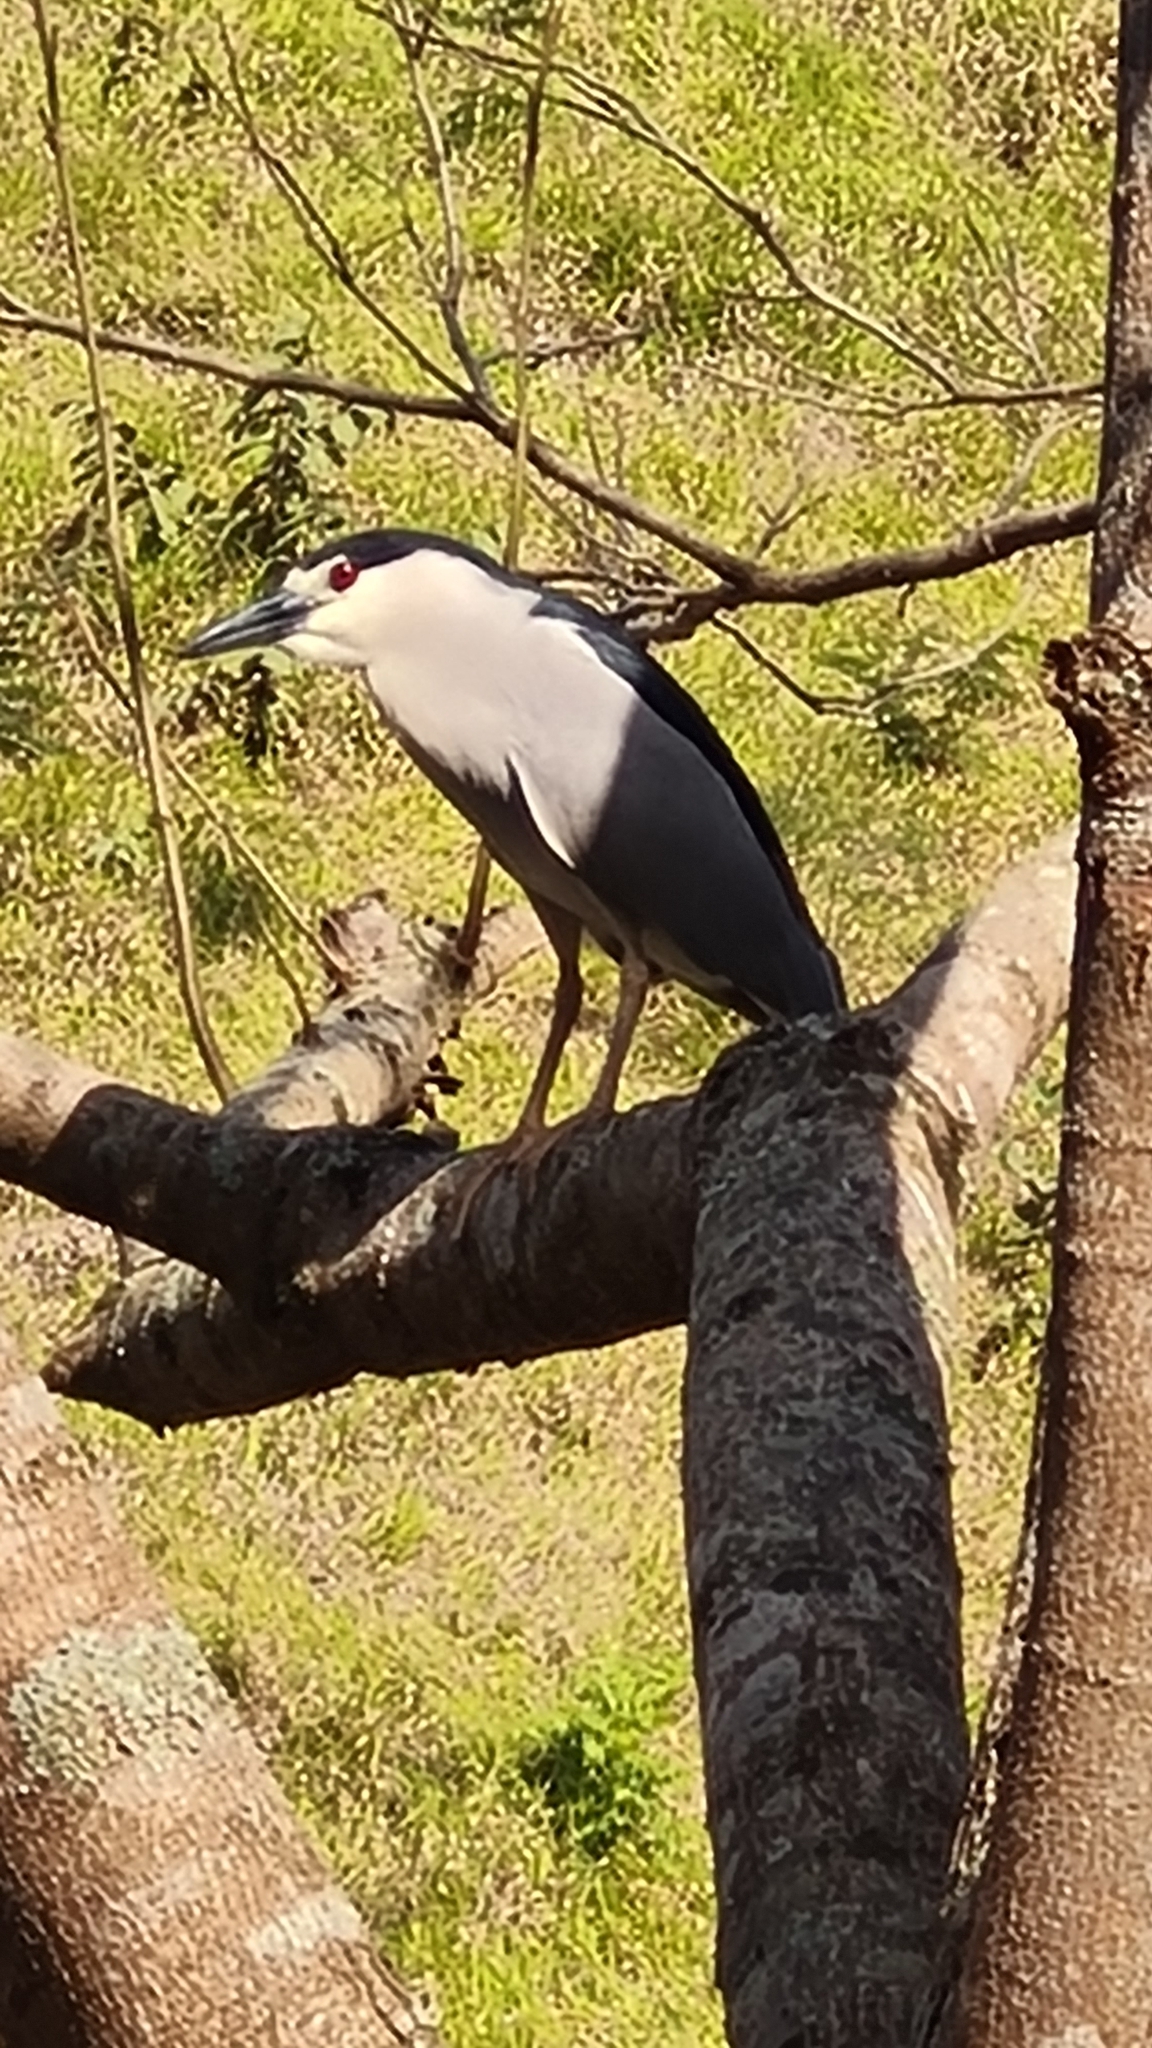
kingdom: Animalia
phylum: Chordata
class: Aves
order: Pelecaniformes
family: Ardeidae
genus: Nycticorax
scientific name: Nycticorax nycticorax
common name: Black-crowned night heron
